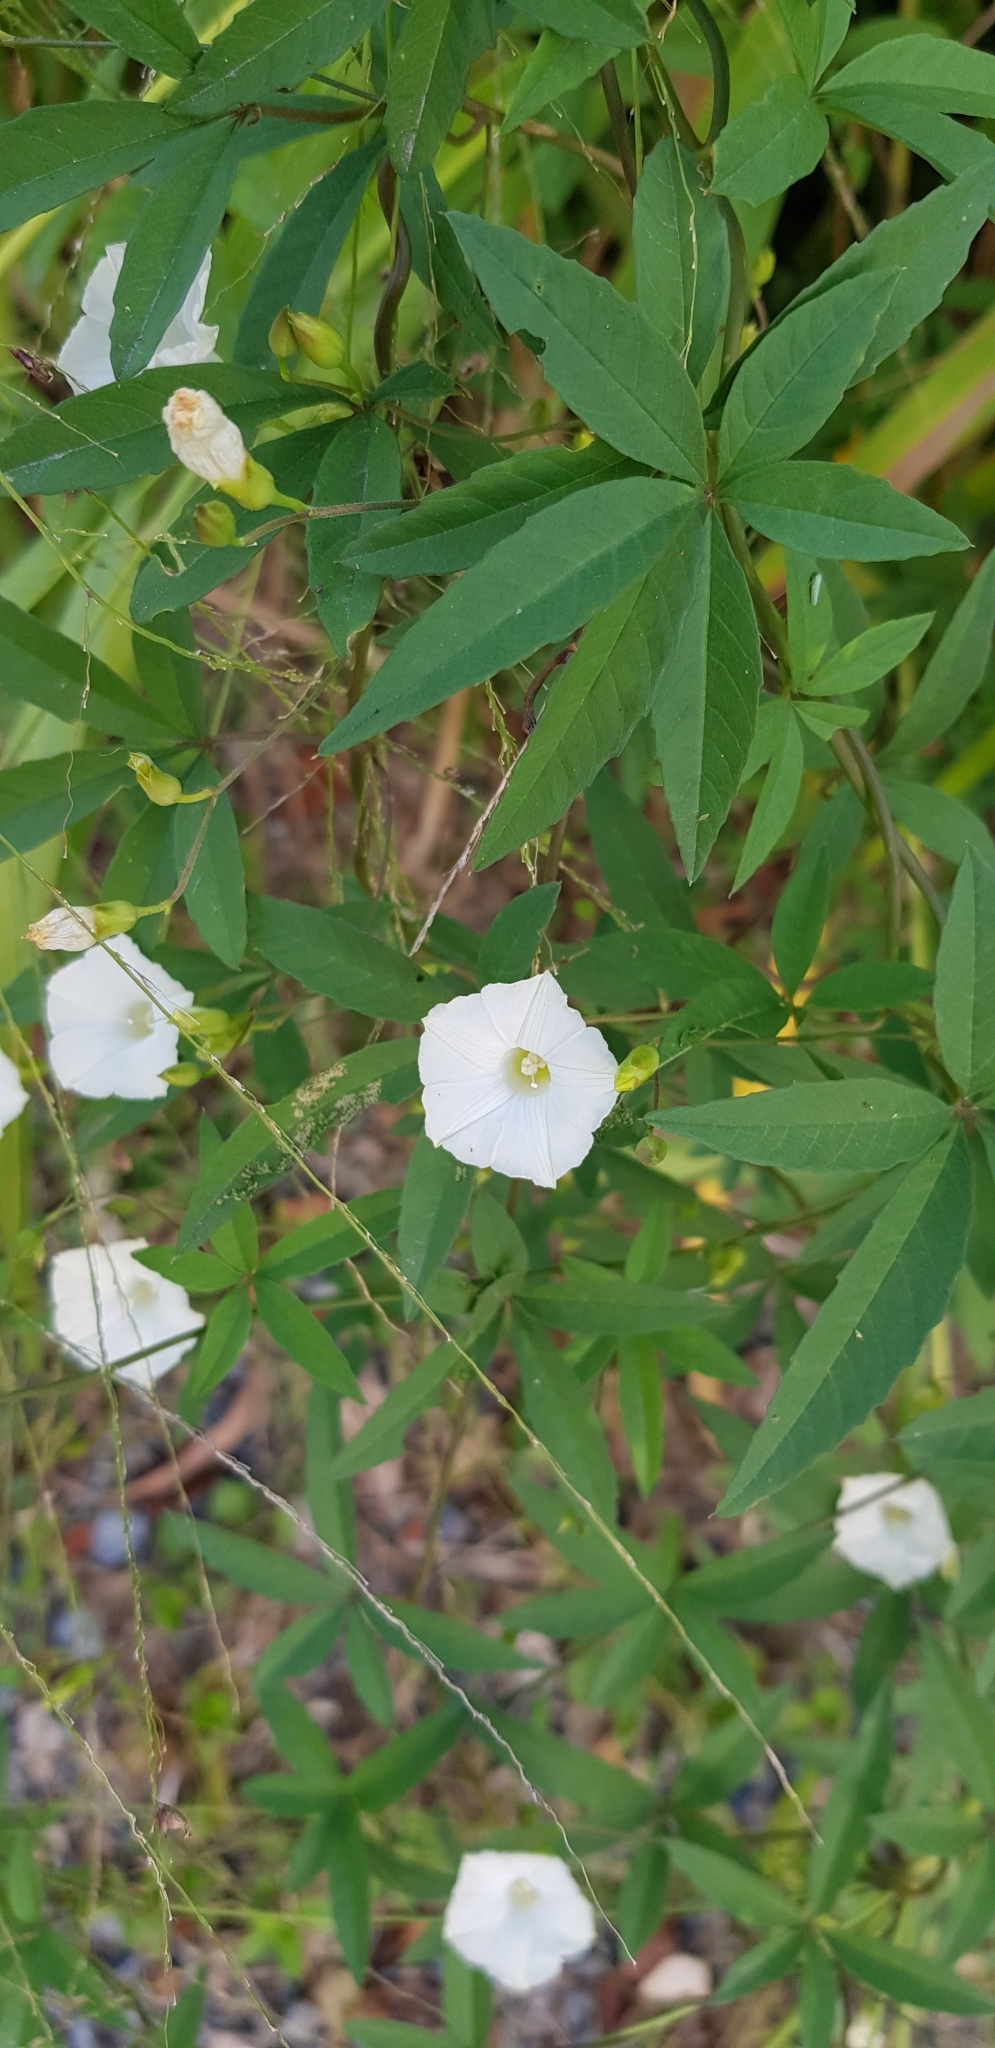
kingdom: Plantae
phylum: Tracheophyta
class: Magnoliopsida
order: Solanales
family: Convolvulaceae
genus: Distimake
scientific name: Distimake quinquefolius
